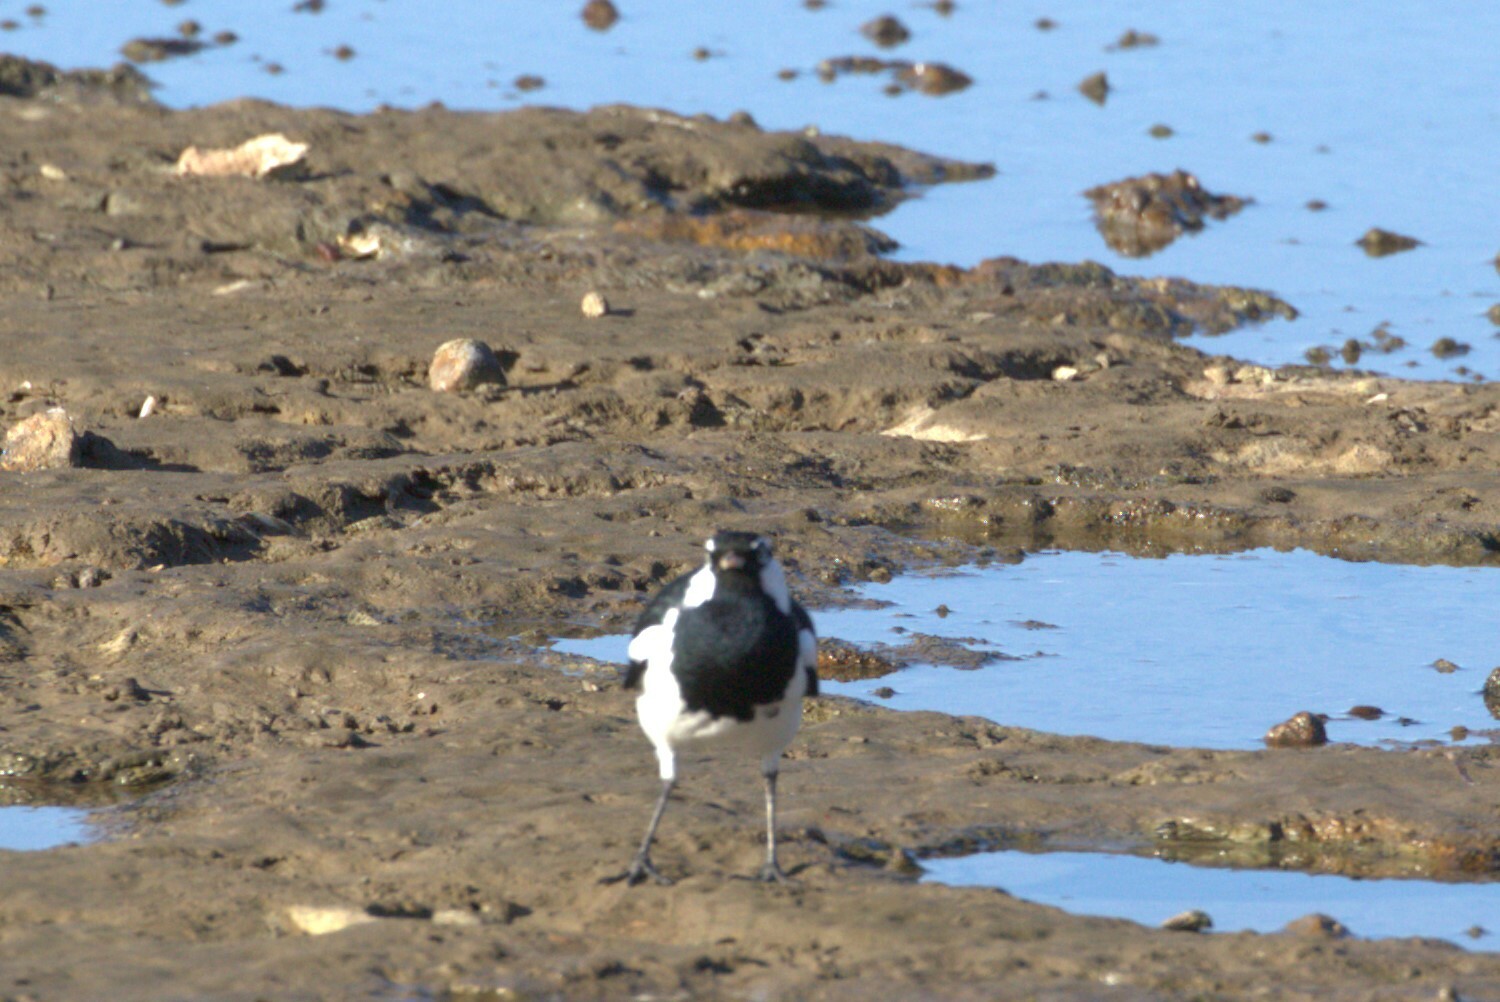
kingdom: Animalia
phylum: Chordata
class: Aves
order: Passeriformes
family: Monarchidae
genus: Grallina
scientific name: Grallina cyanoleuca
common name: Magpie-lark
